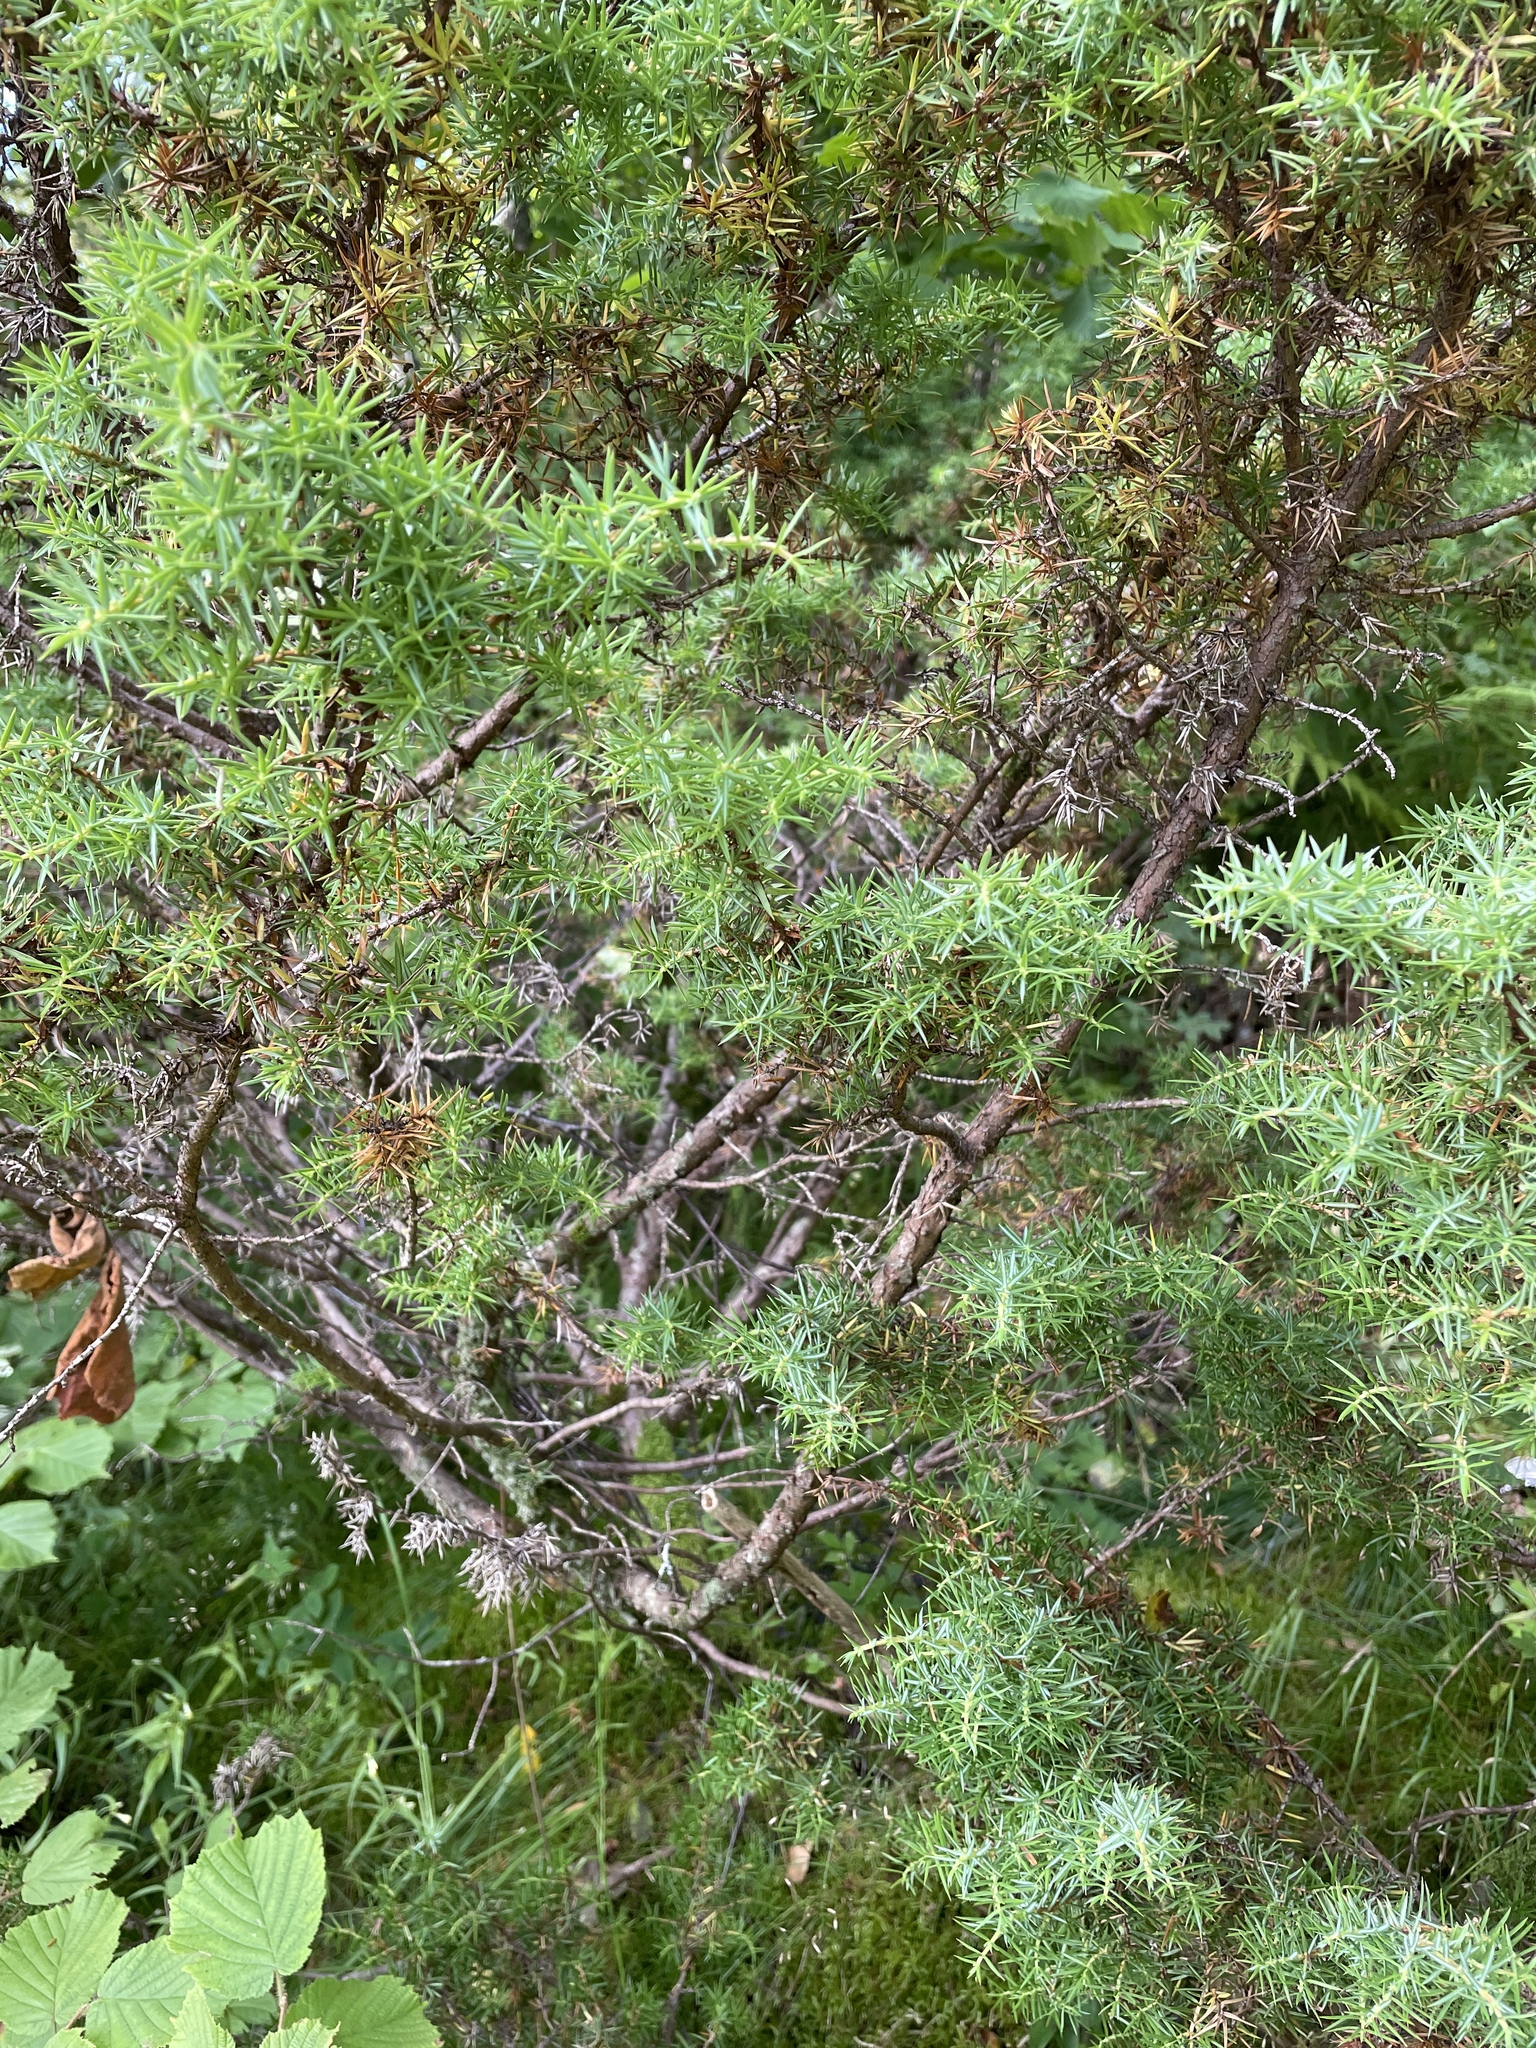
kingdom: Plantae
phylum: Tracheophyta
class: Pinopsida
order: Pinales
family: Cupressaceae
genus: Juniperus
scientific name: Juniperus communis
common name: Common juniper
